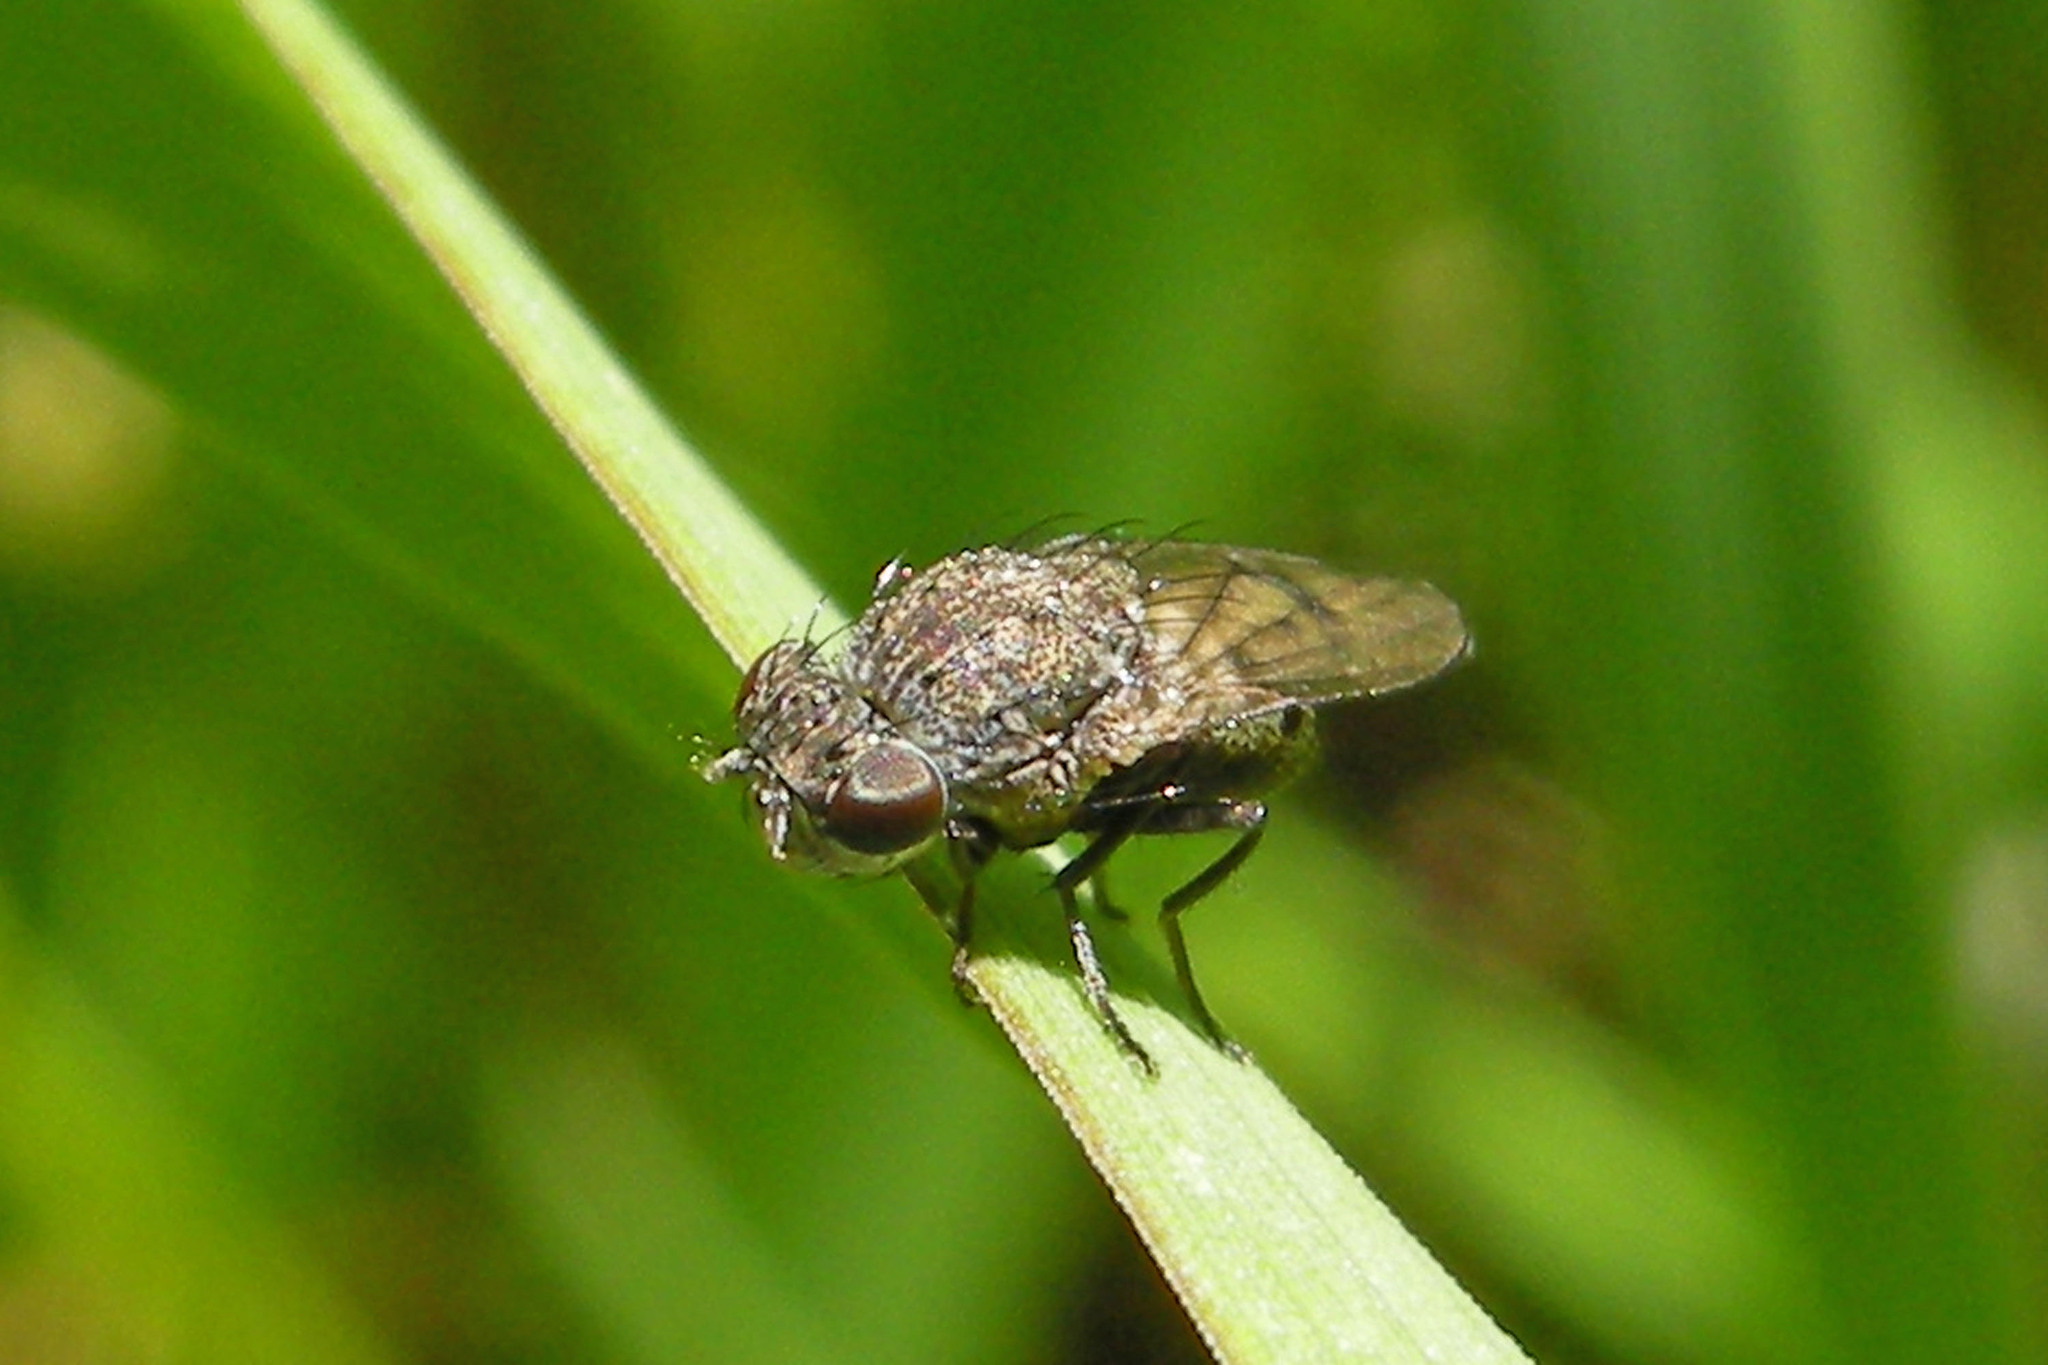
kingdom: Animalia
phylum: Arthropoda
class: Insecta
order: Diptera
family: Ephydridae
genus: Paralimna
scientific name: Paralimna punctipennis
